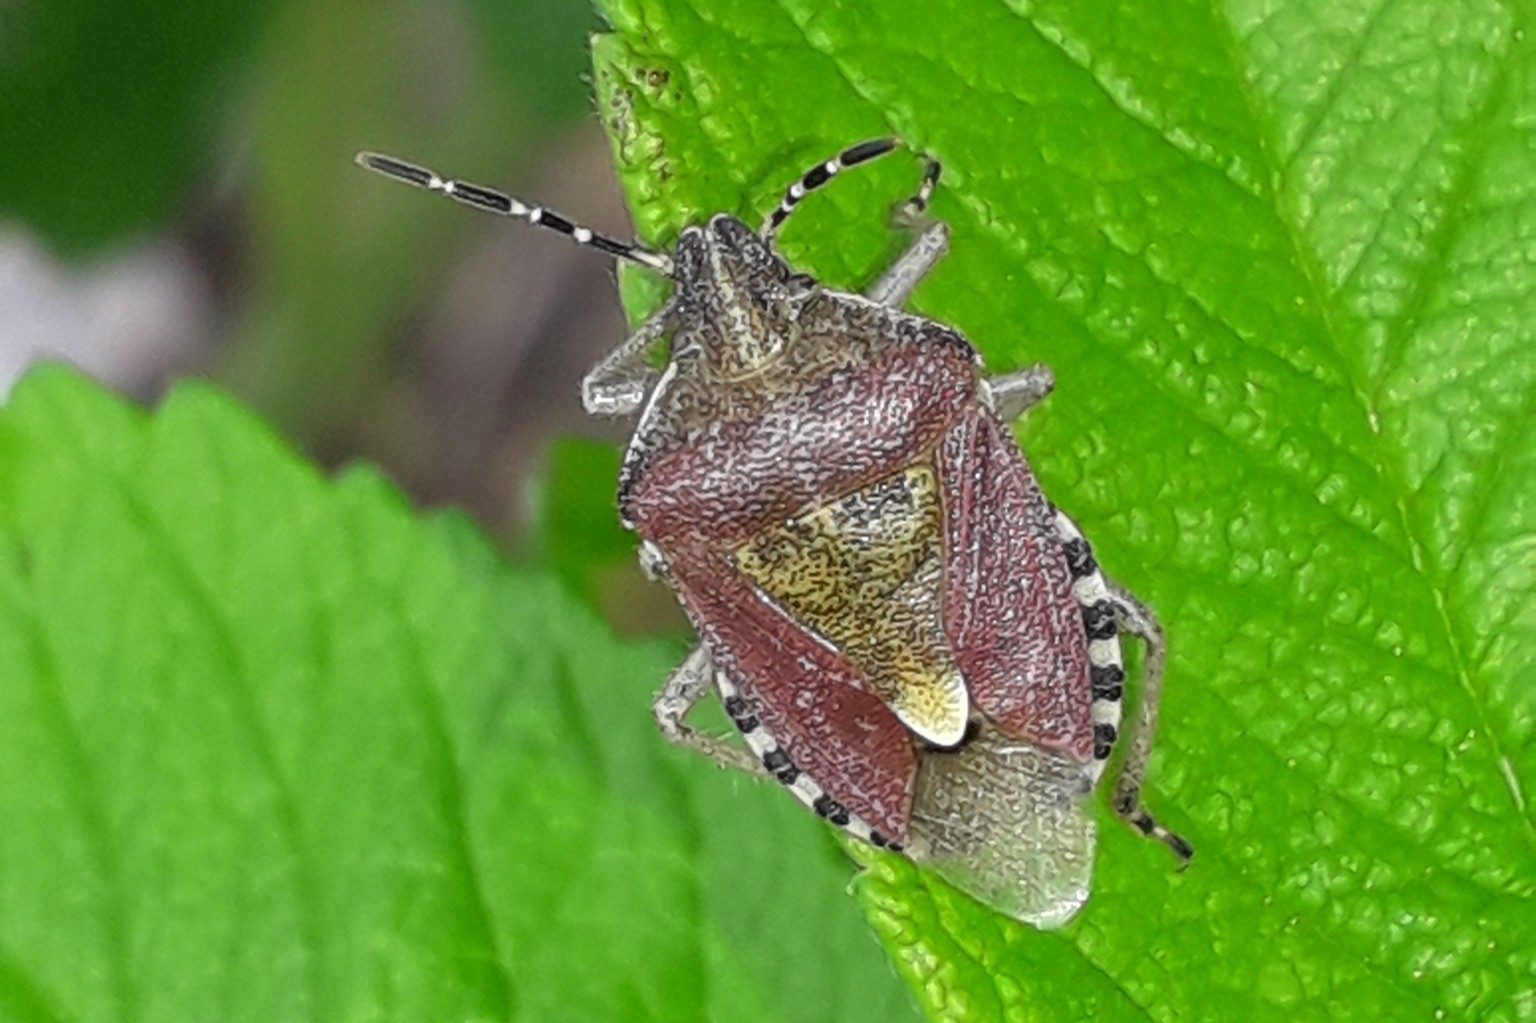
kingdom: Animalia
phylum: Arthropoda
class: Insecta
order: Hemiptera
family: Pentatomidae
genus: Dolycoris
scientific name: Dolycoris baccarum
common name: Sloe bug
